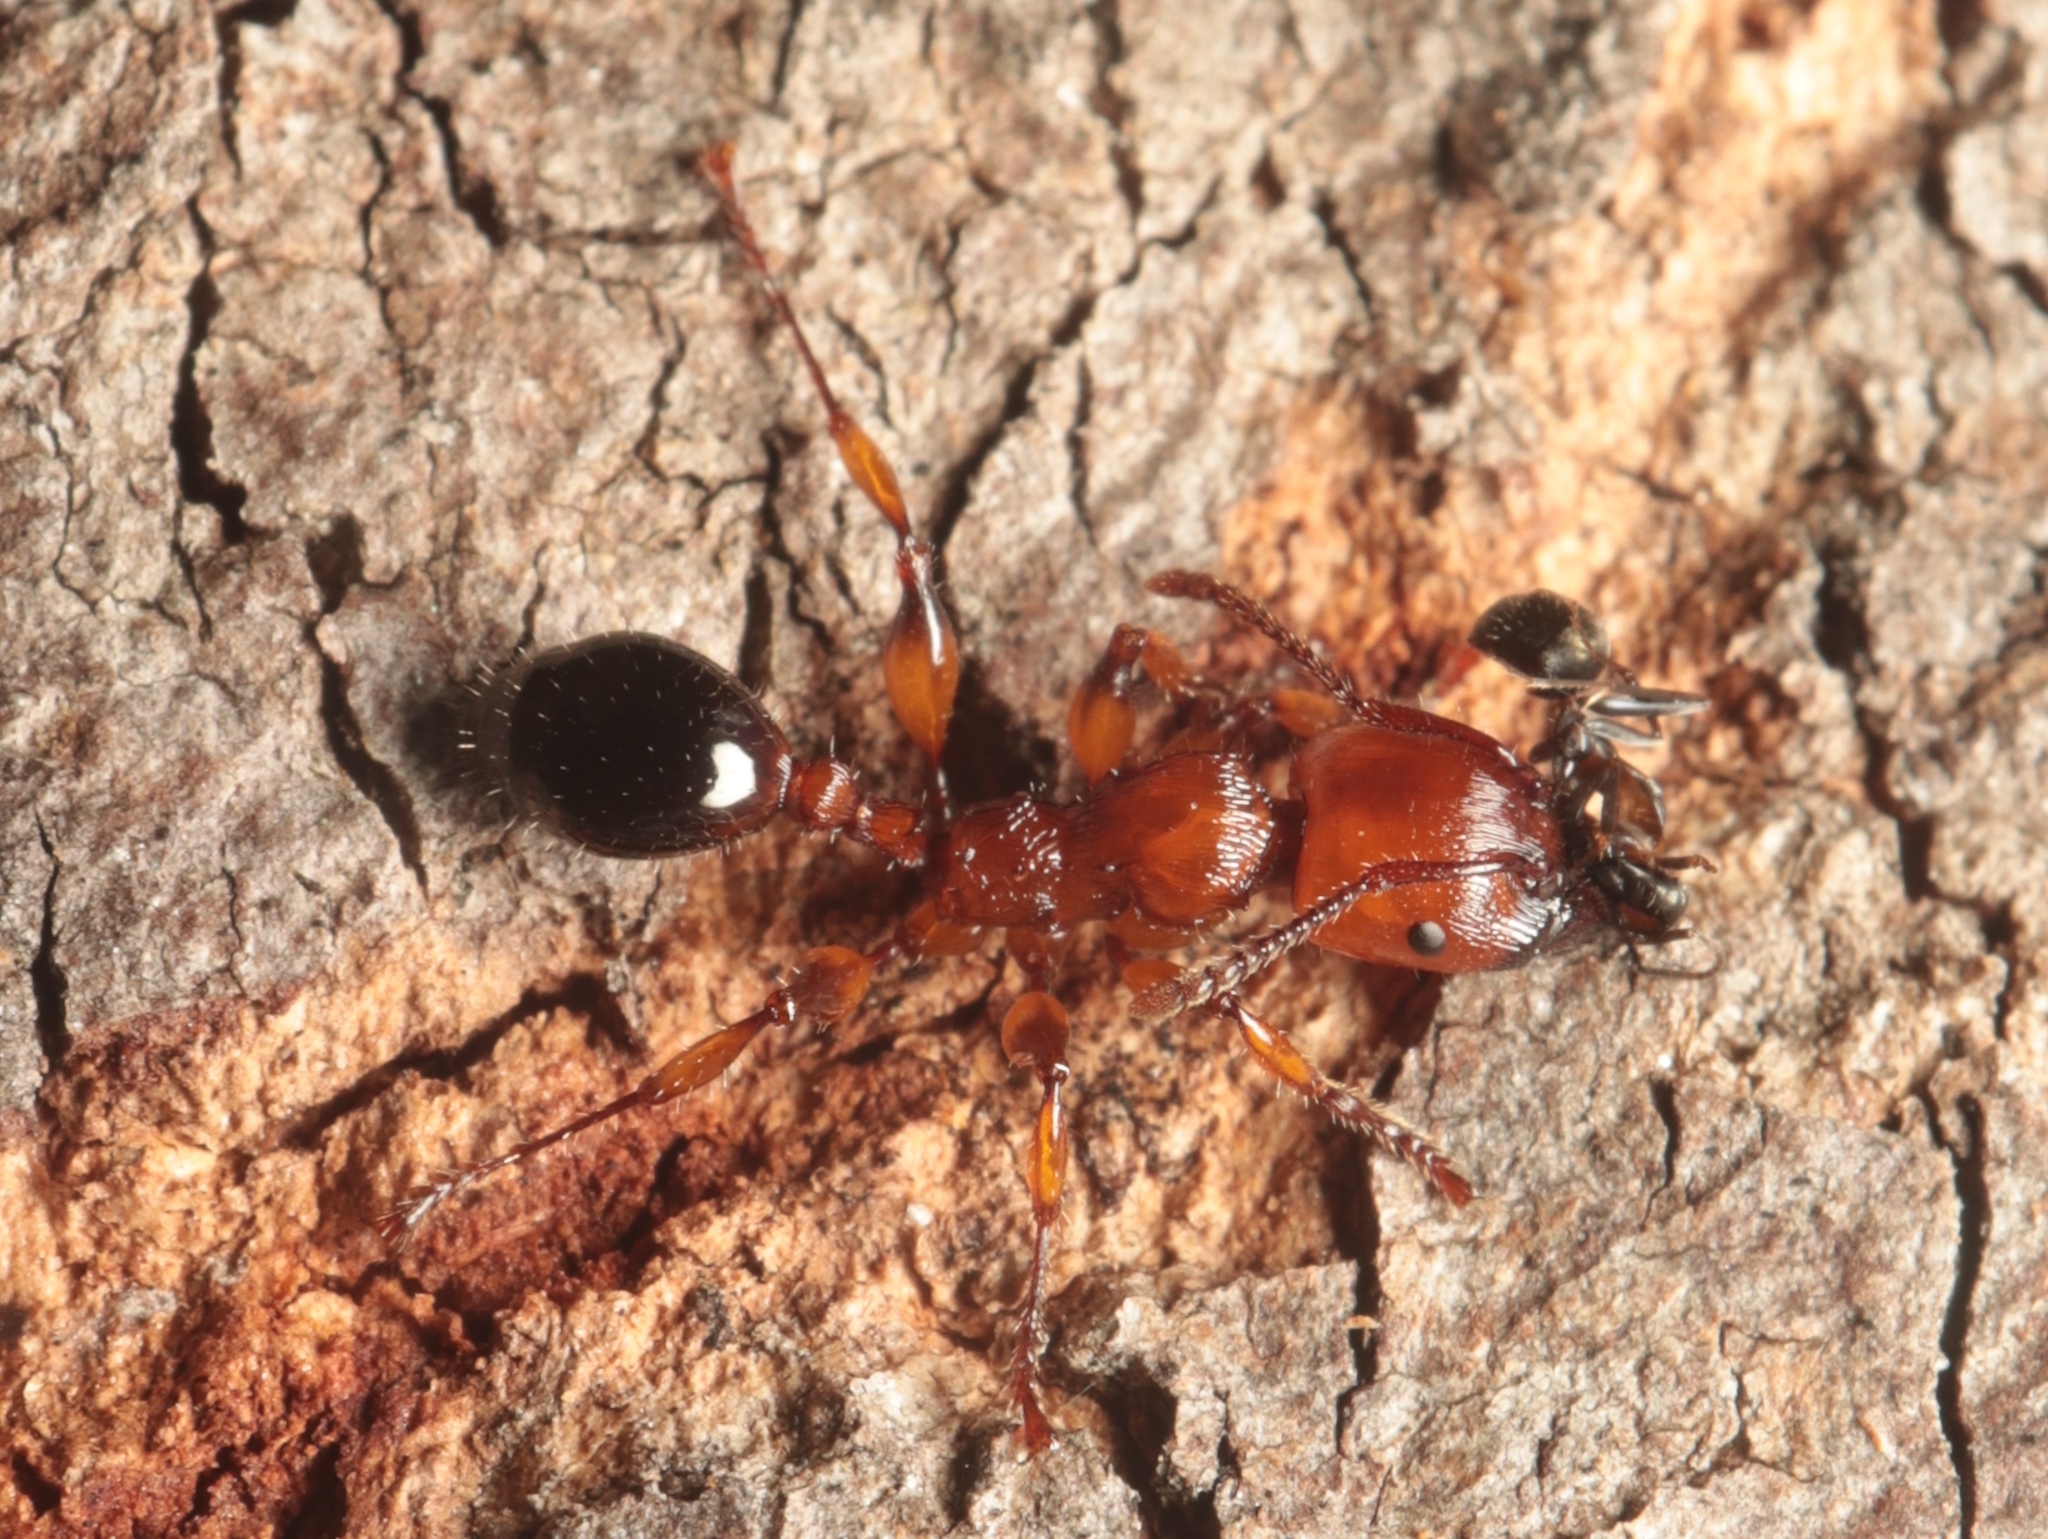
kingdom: Animalia
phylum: Arthropoda
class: Insecta
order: Hymenoptera
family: Formicidae
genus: Podomyrma
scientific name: Podomyrma gratiosa
